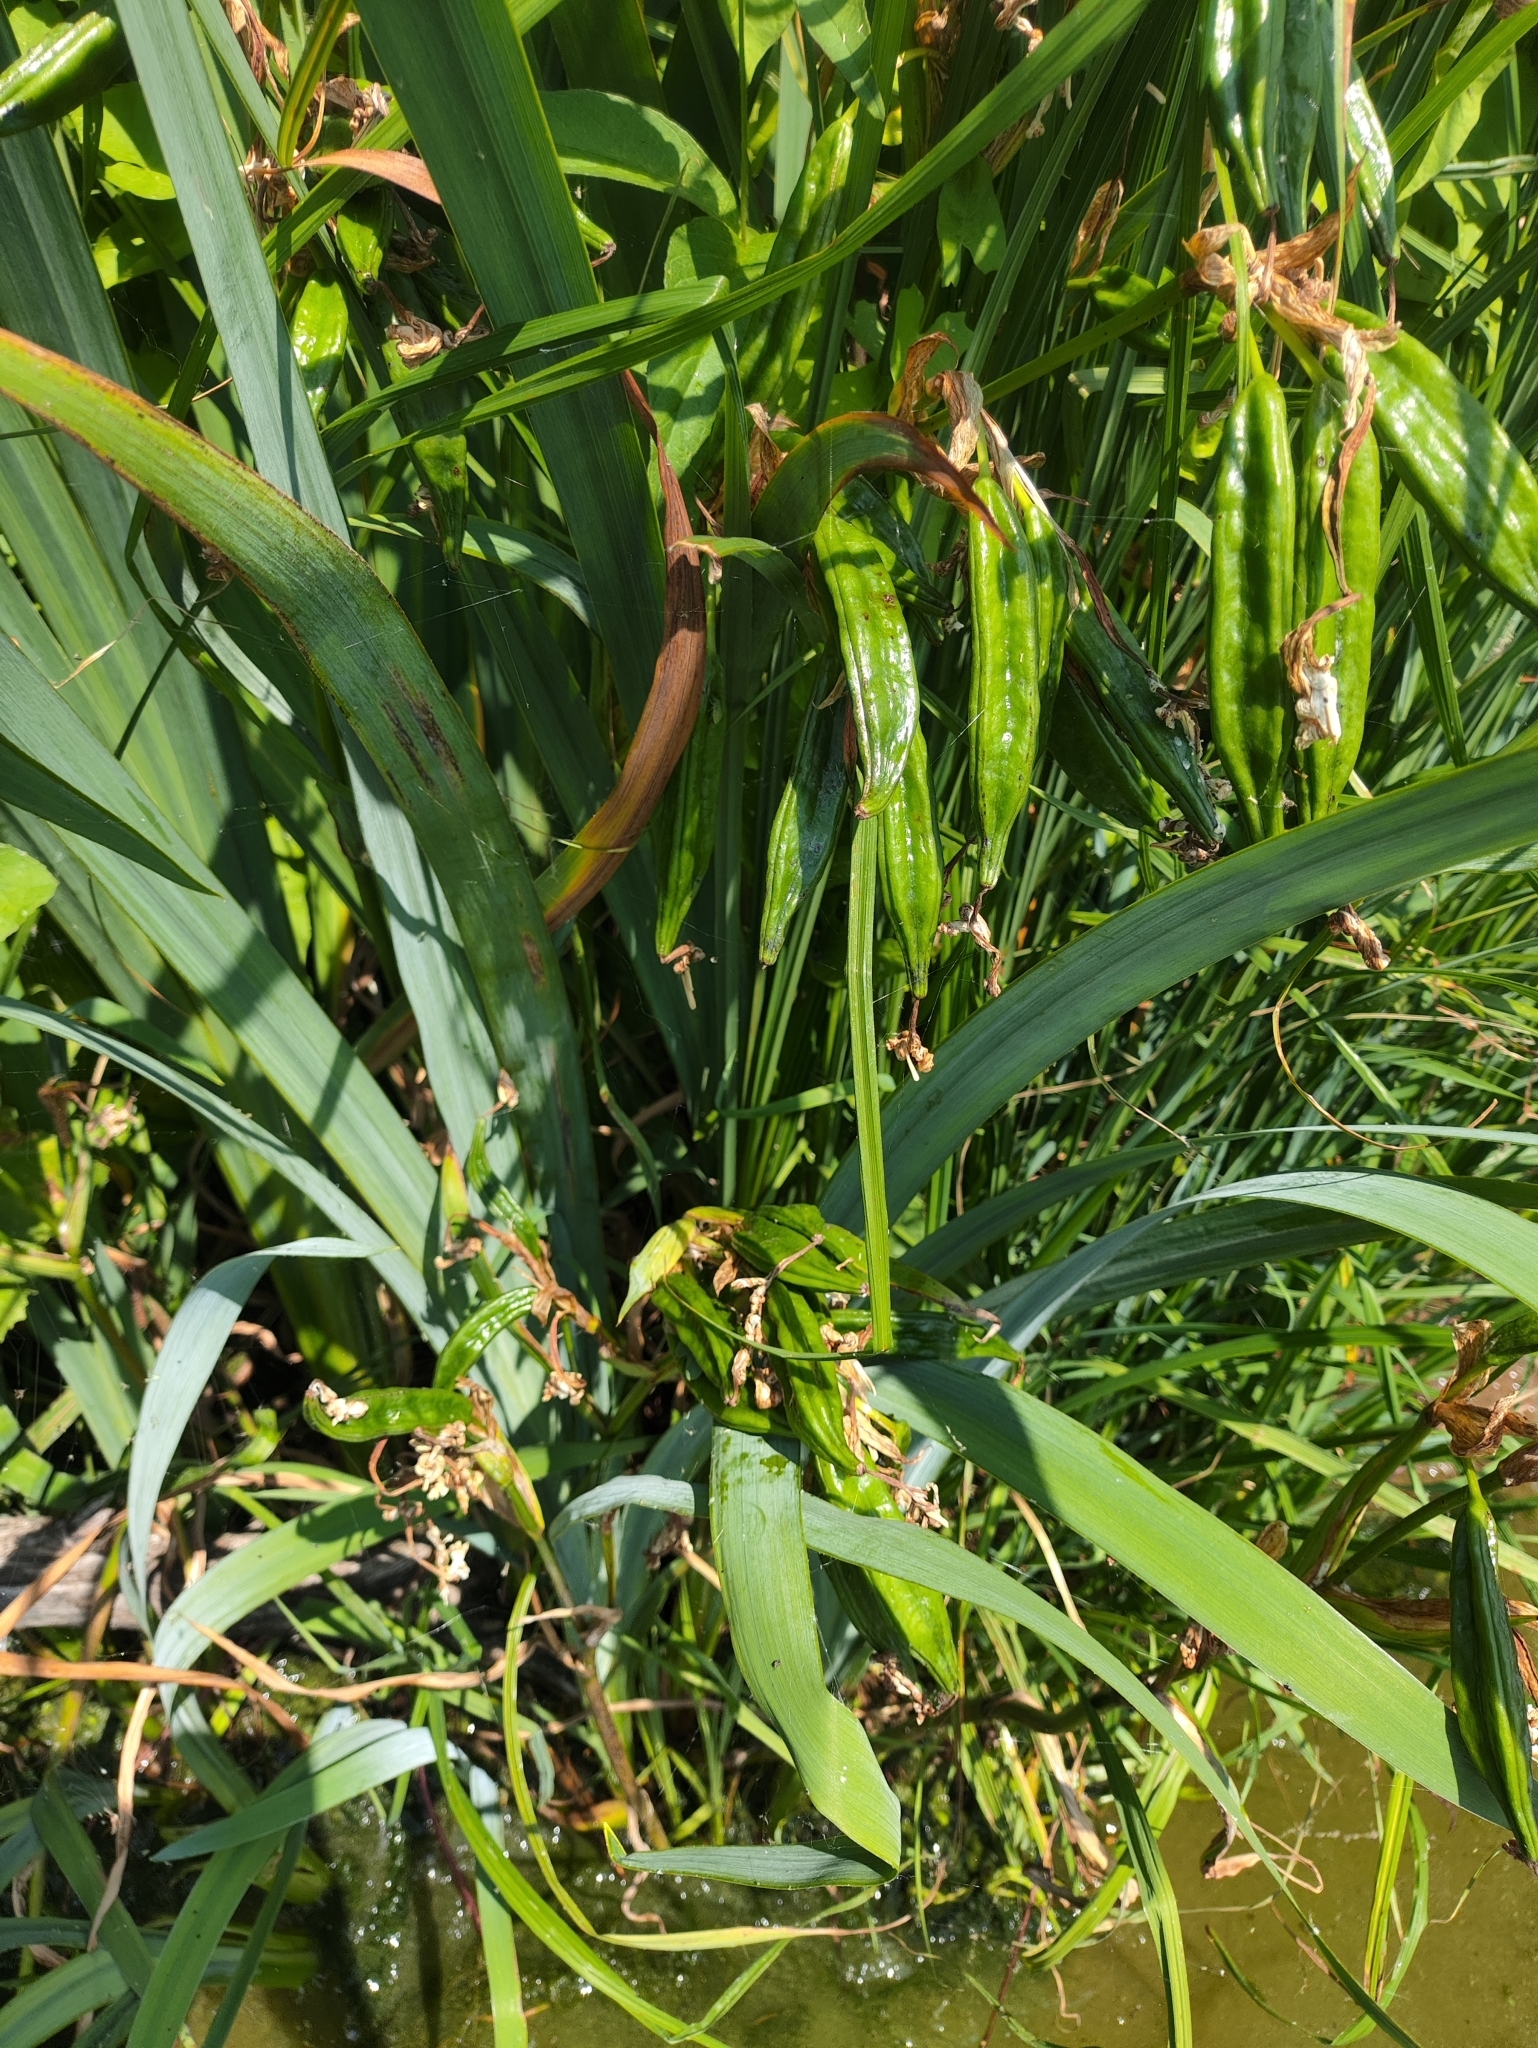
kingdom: Plantae
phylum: Tracheophyta
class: Liliopsida
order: Asparagales
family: Iridaceae
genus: Iris
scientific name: Iris pseudacorus
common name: Yellow flag
